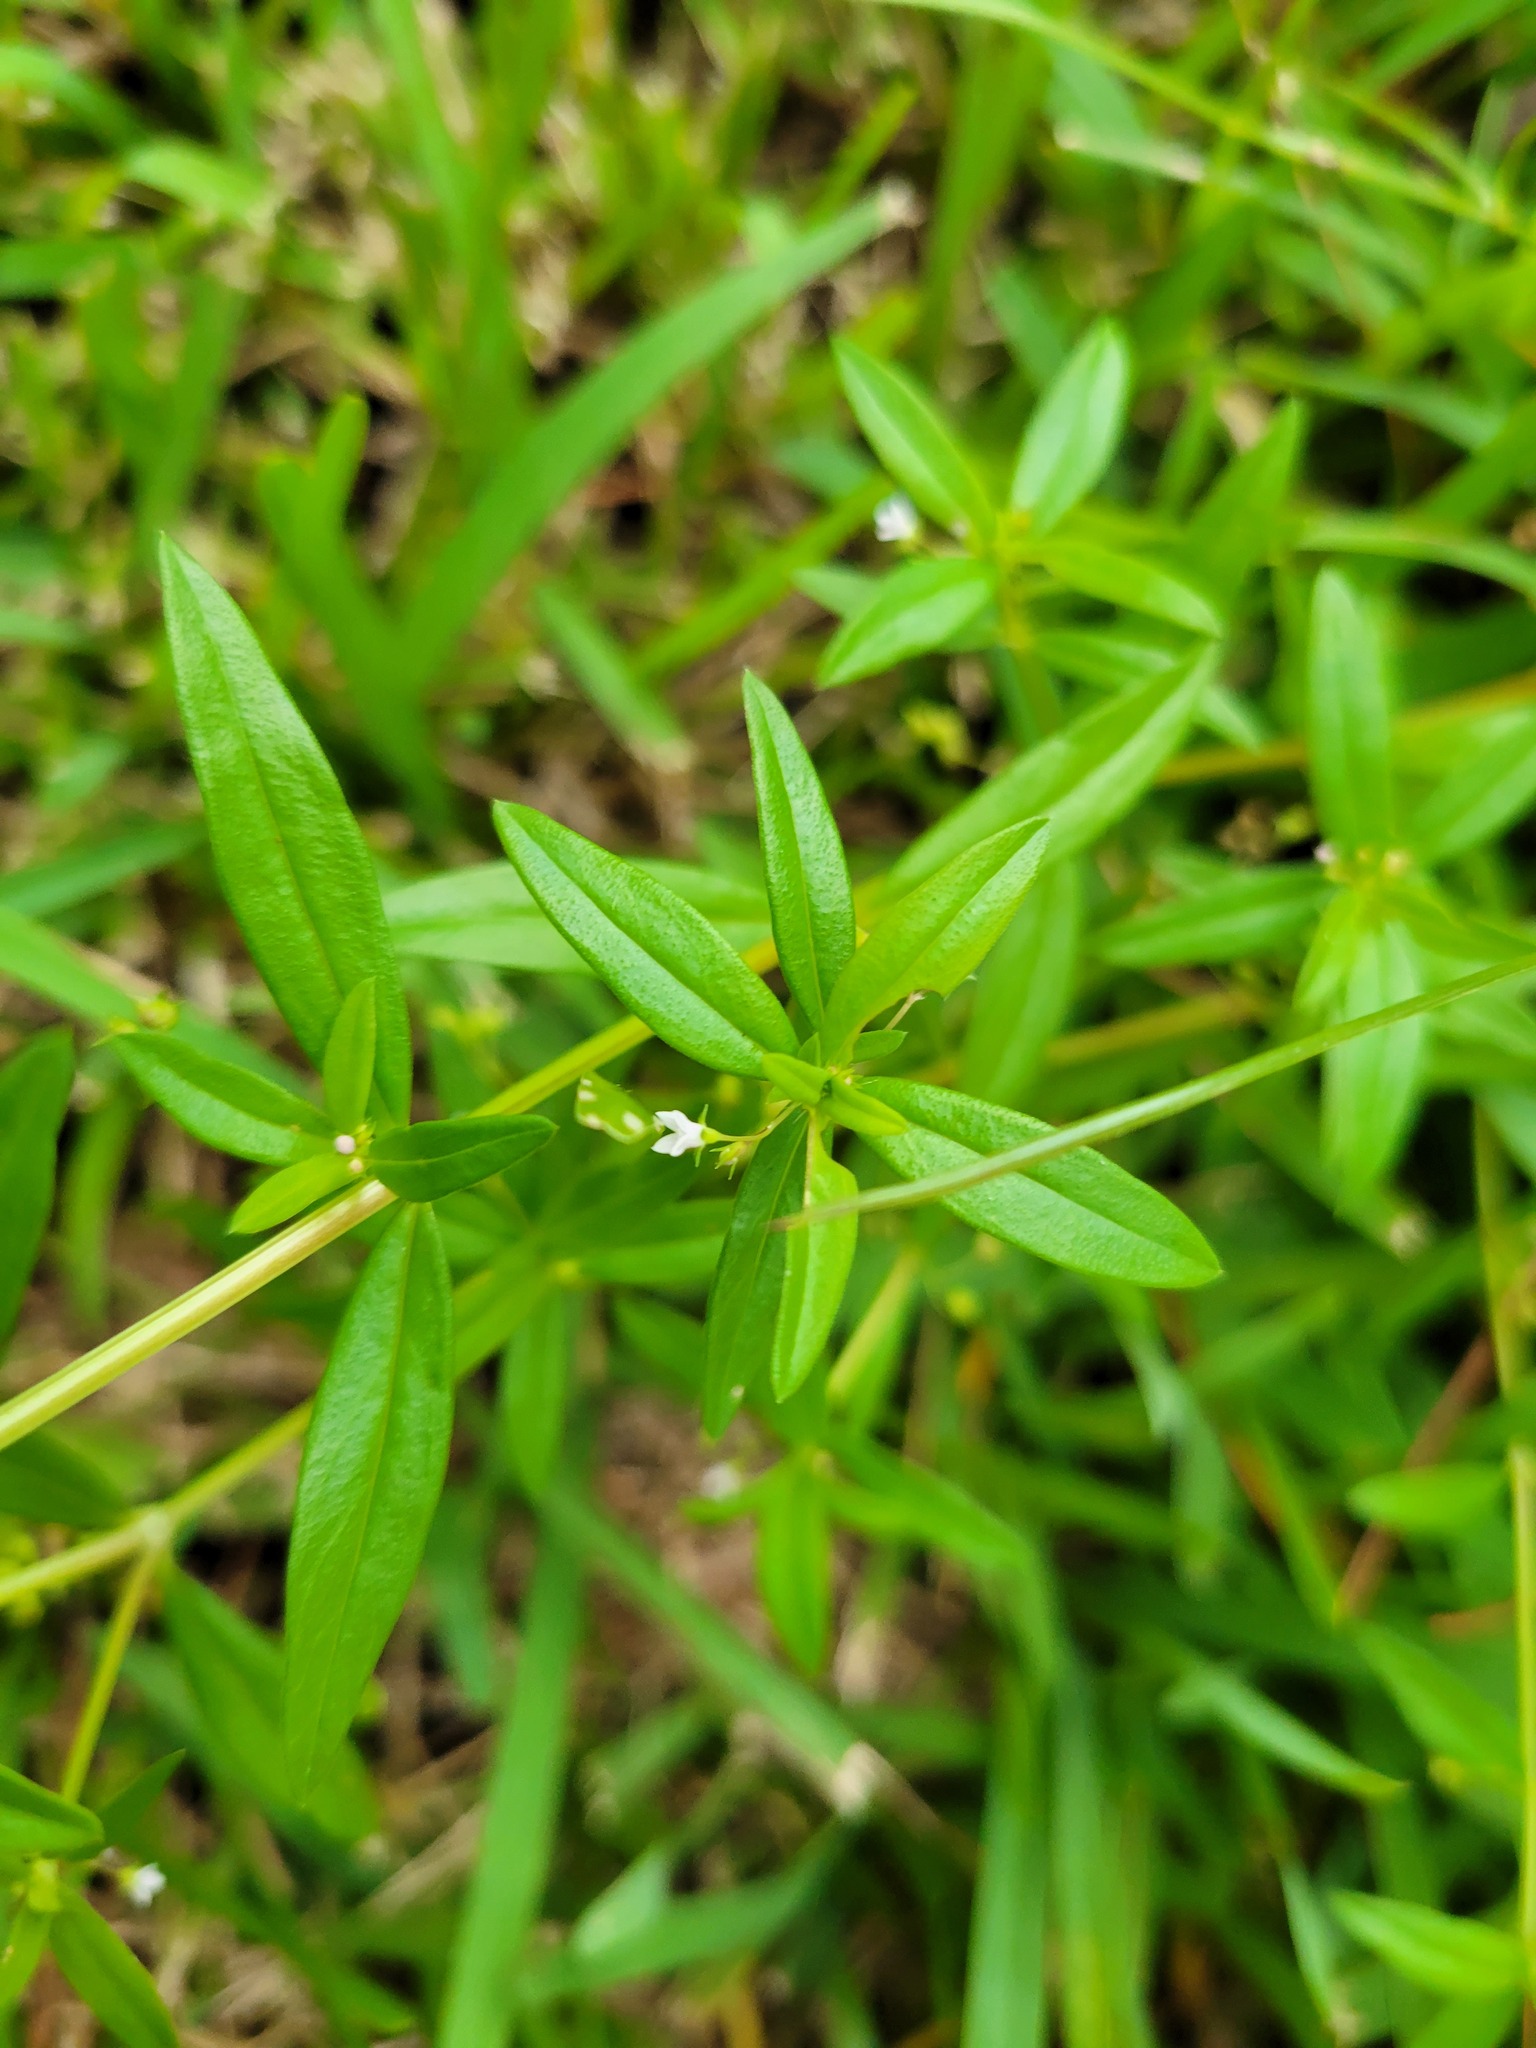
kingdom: Plantae
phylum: Tracheophyta
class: Magnoliopsida
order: Gentianales
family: Rubiaceae
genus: Oldenlandia
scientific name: Oldenlandia corymbosa
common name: Flat-top mille graines
